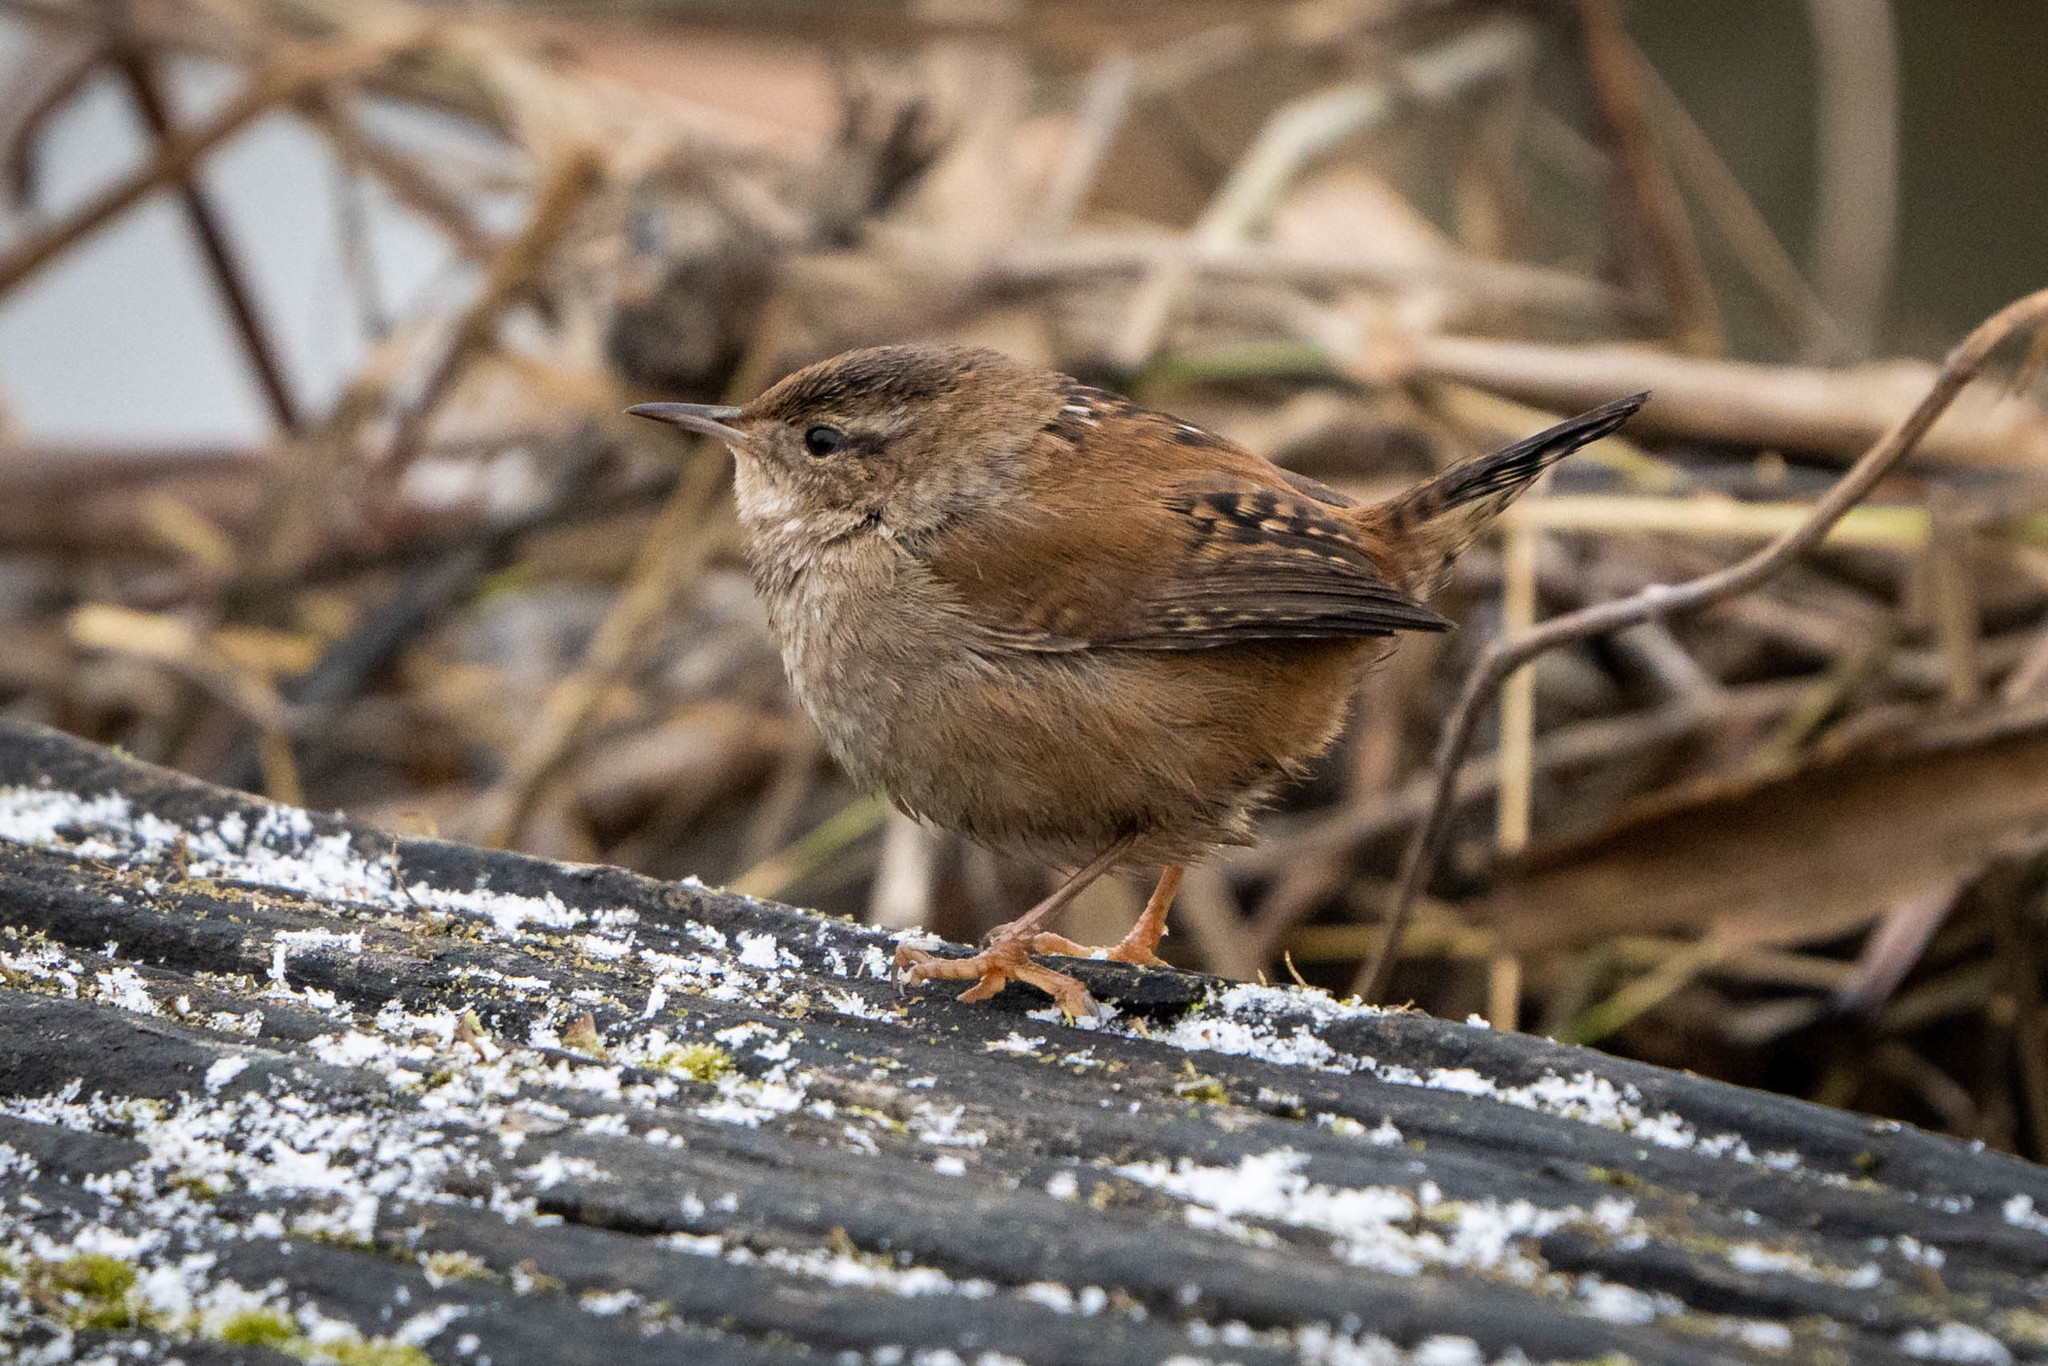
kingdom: Animalia
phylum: Chordata
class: Aves
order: Passeriformes
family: Troglodytidae
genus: Cistothorus
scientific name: Cistothorus palustris
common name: Marsh wren
